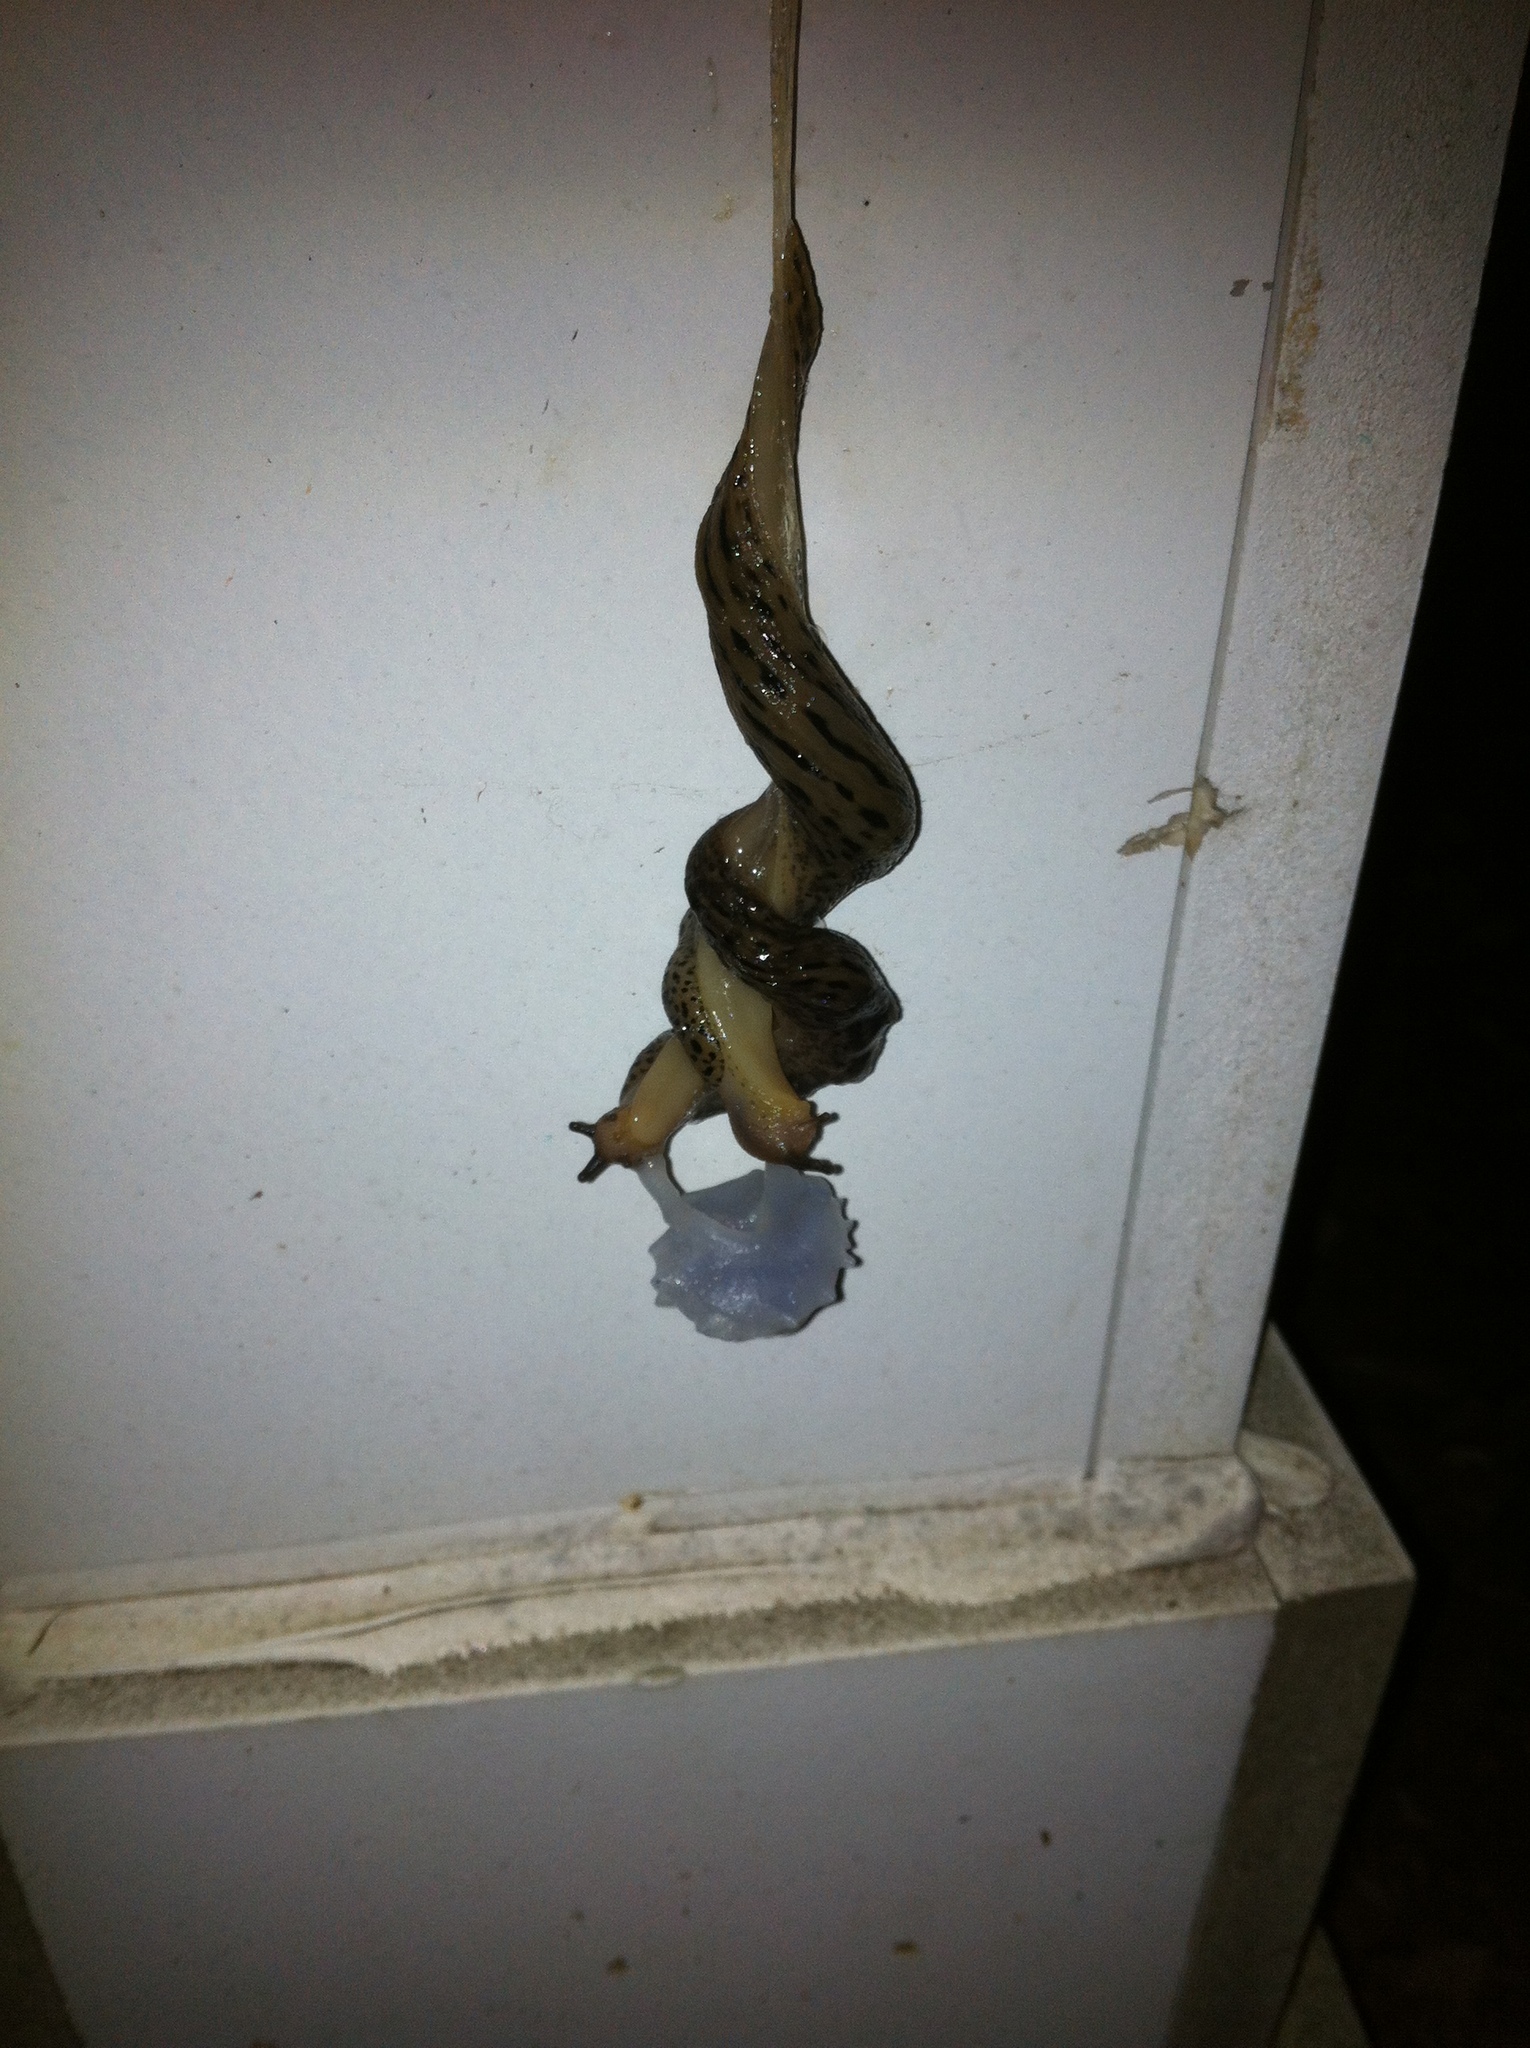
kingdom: Animalia
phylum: Mollusca
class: Gastropoda
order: Stylommatophora
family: Limacidae
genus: Limax
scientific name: Limax maximus
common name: Great grey slug
